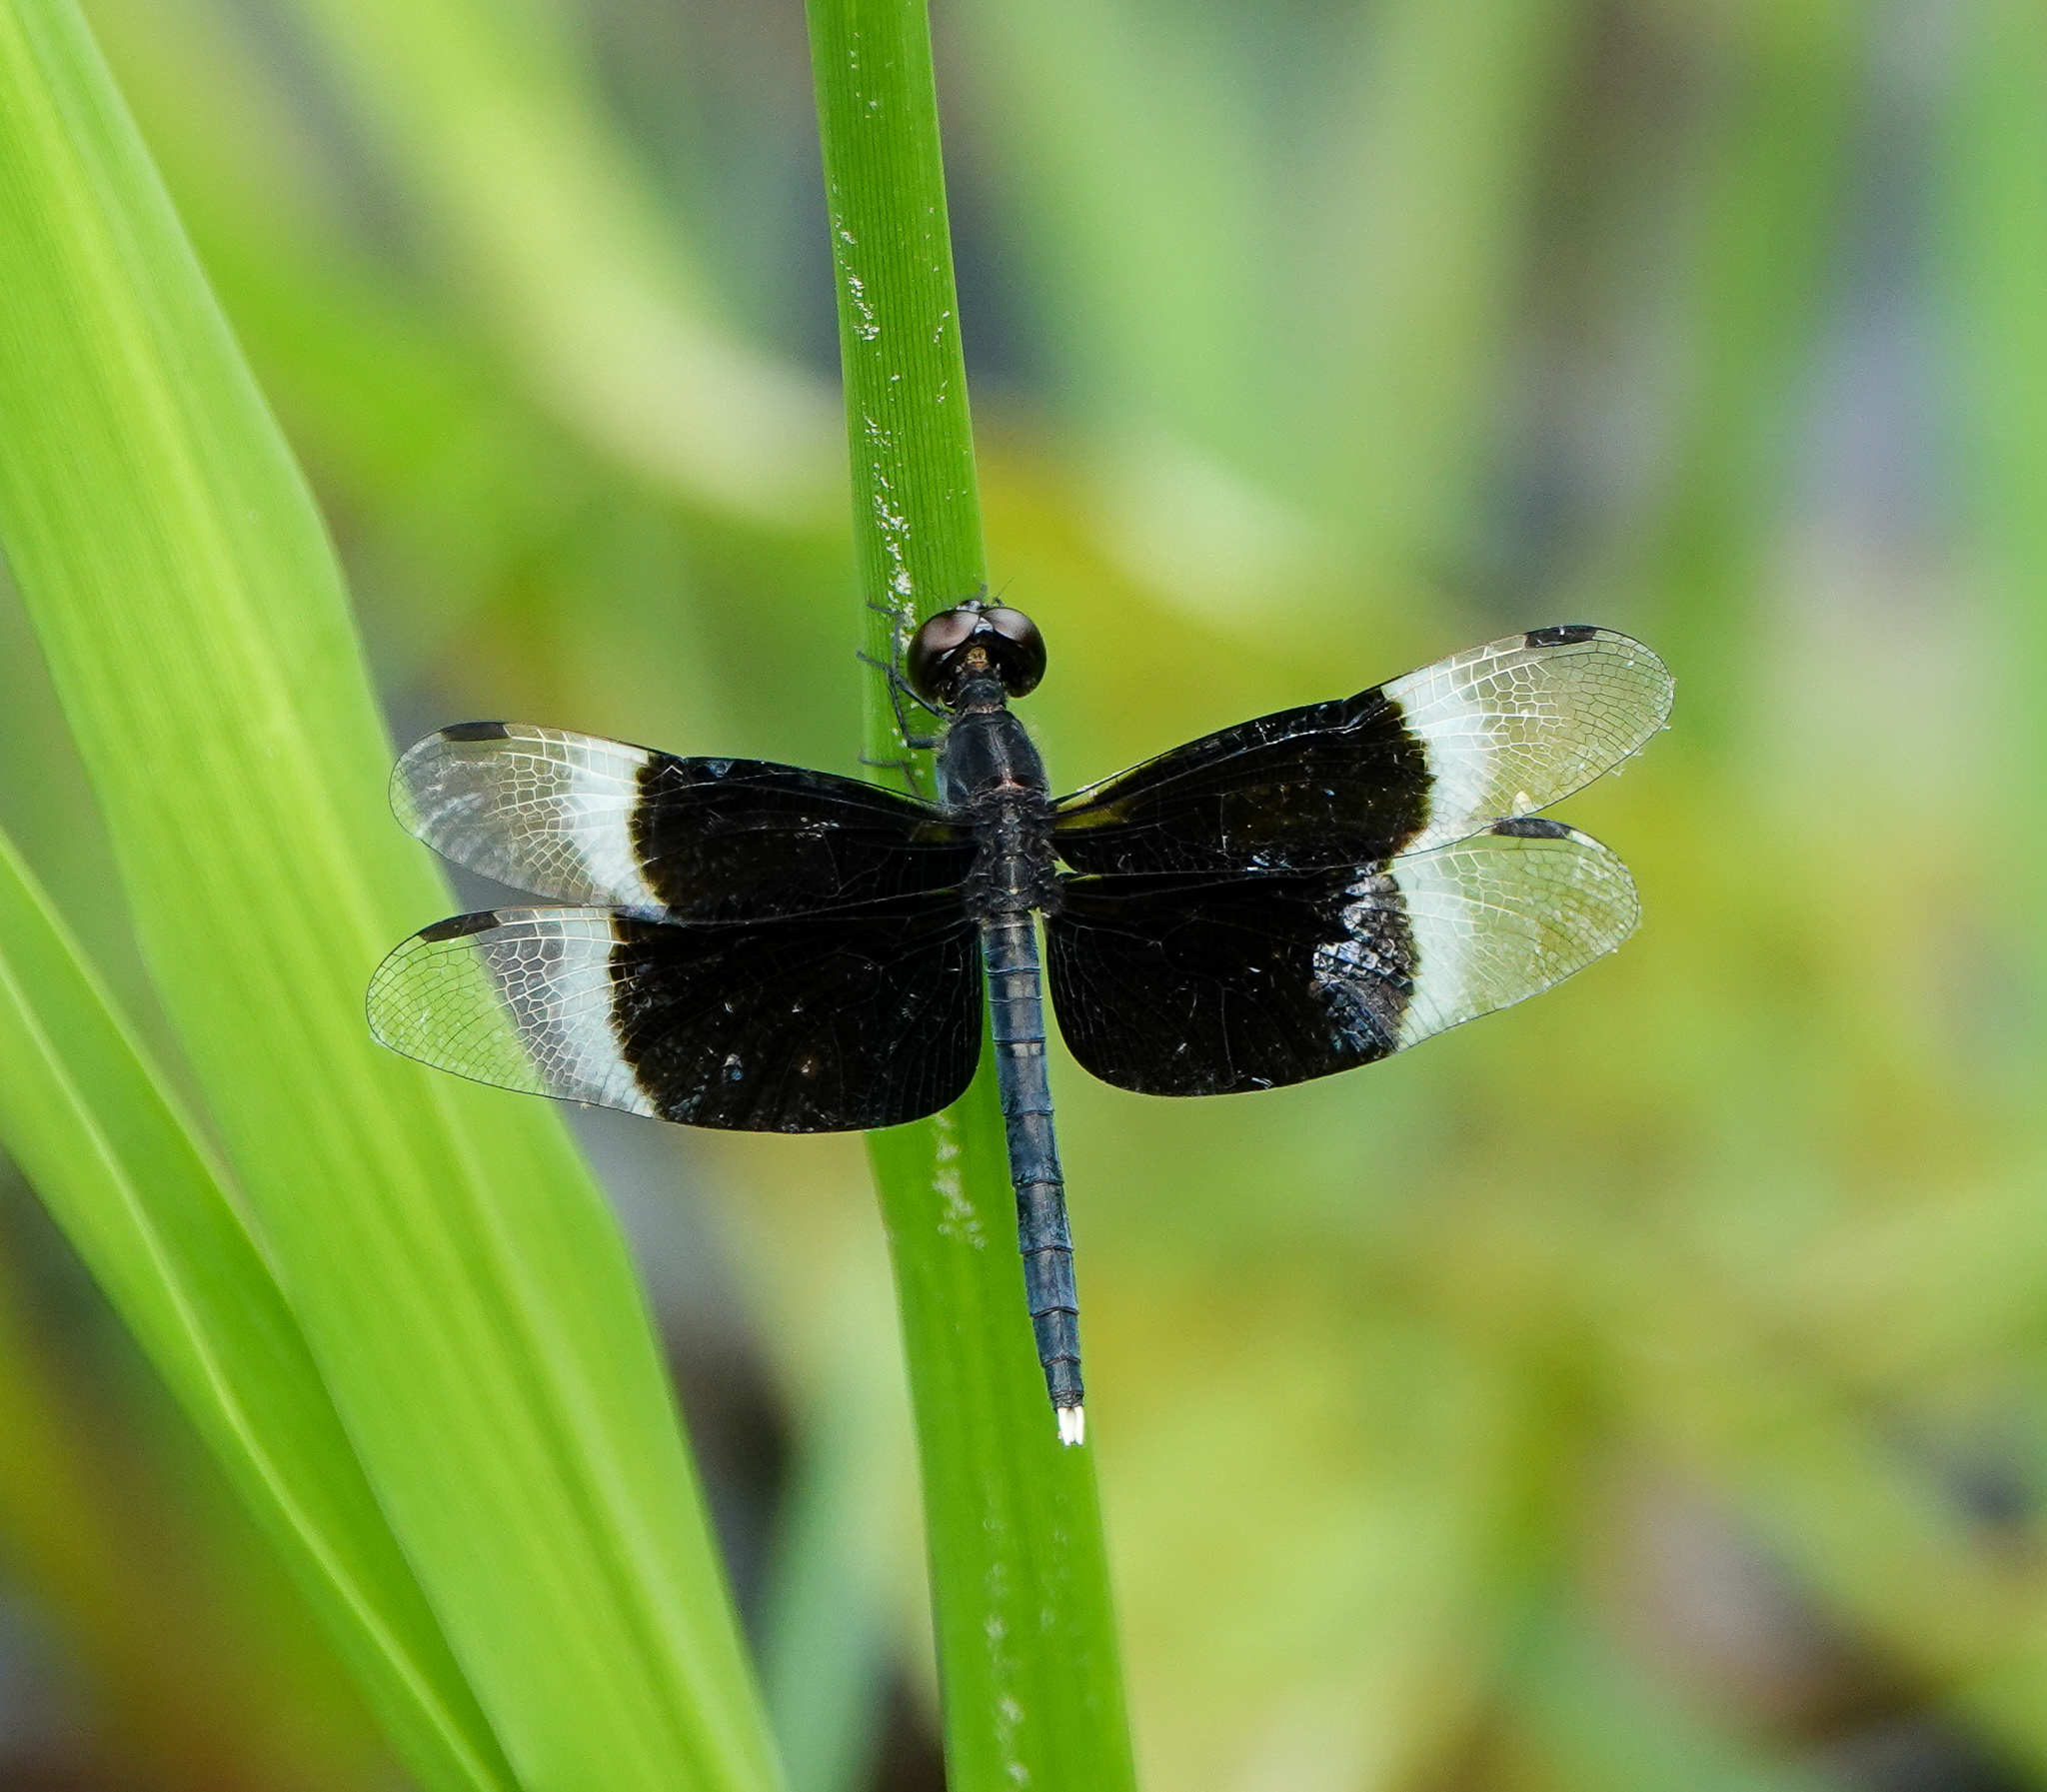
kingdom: Animalia
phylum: Arthropoda
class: Insecta
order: Odonata
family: Libellulidae
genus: Neurothemis
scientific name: Neurothemis tullia
